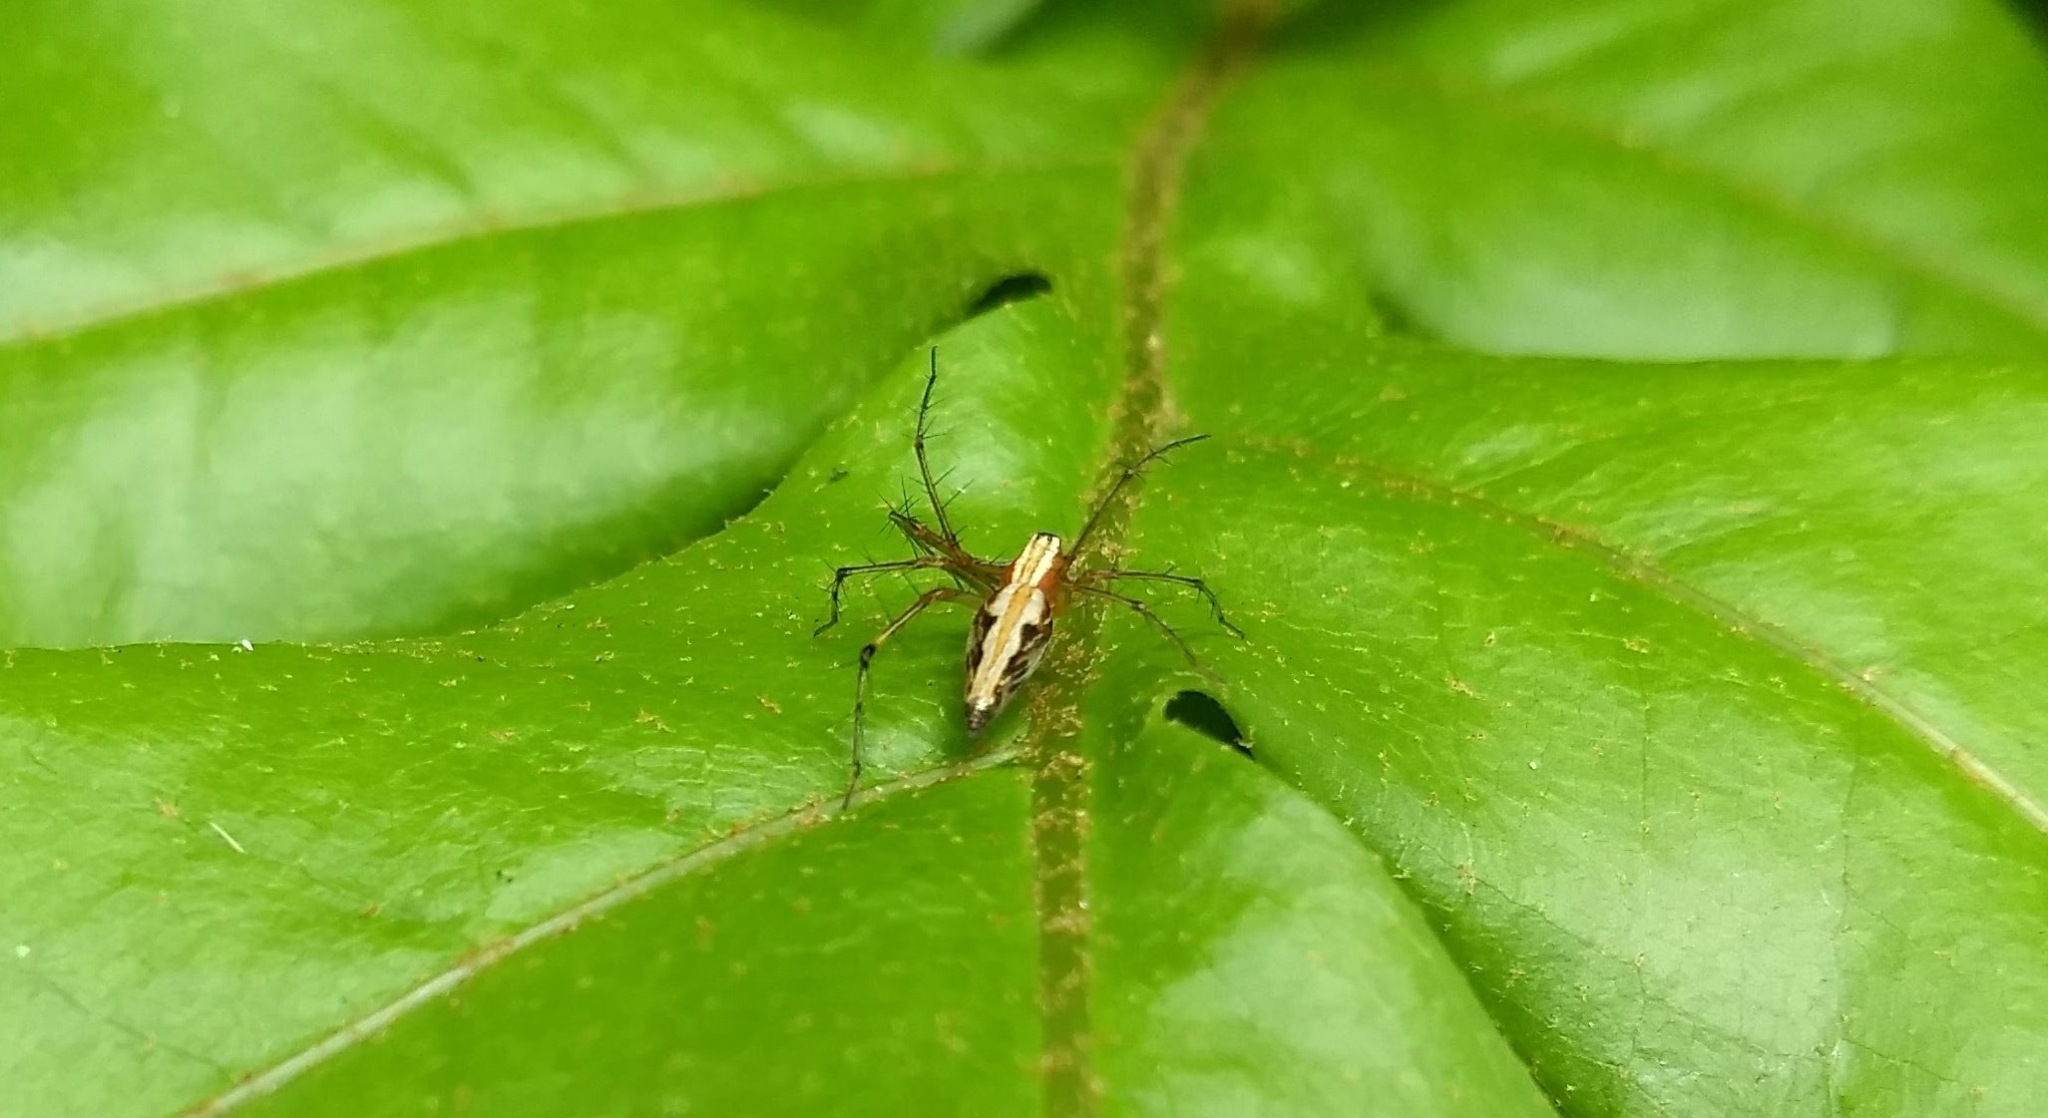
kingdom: Animalia
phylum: Arthropoda
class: Arachnida
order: Araneae
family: Oxyopidae
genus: Oxyopes
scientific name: Oxyopes shweta
